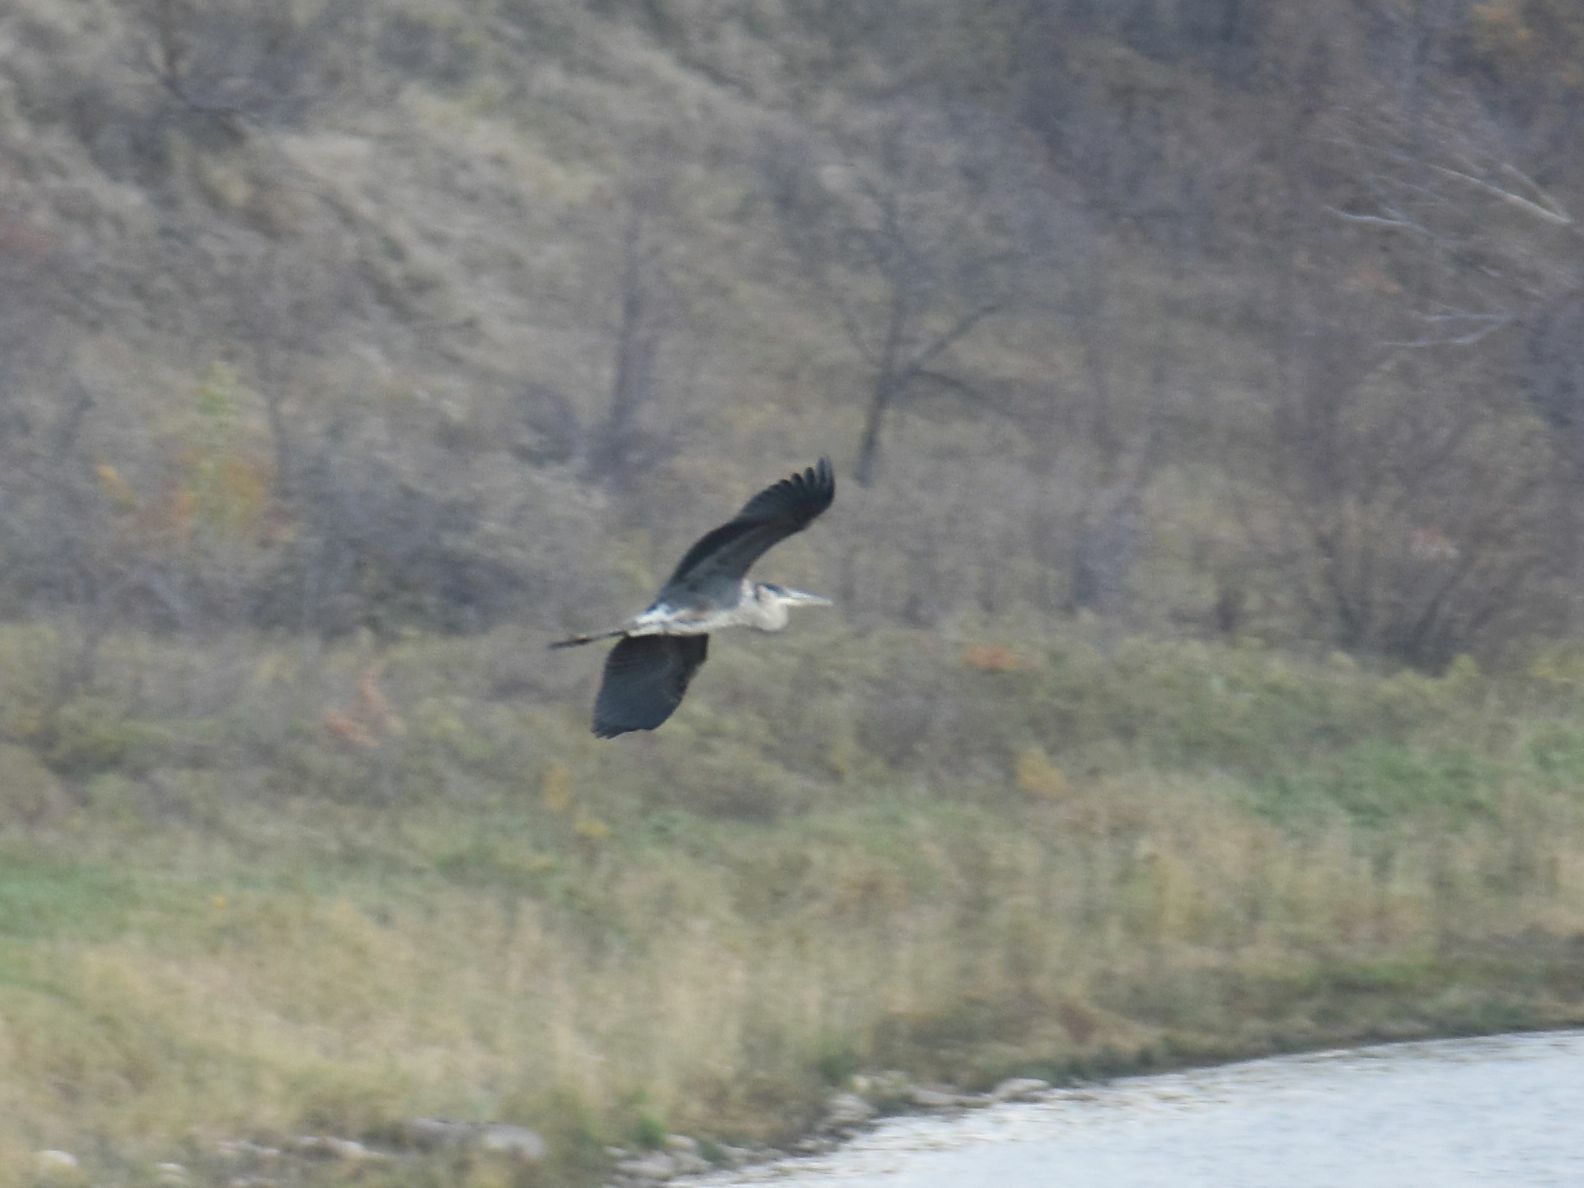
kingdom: Animalia
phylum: Chordata
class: Aves
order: Pelecaniformes
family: Ardeidae
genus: Ardea
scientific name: Ardea herodias
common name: Great blue heron
